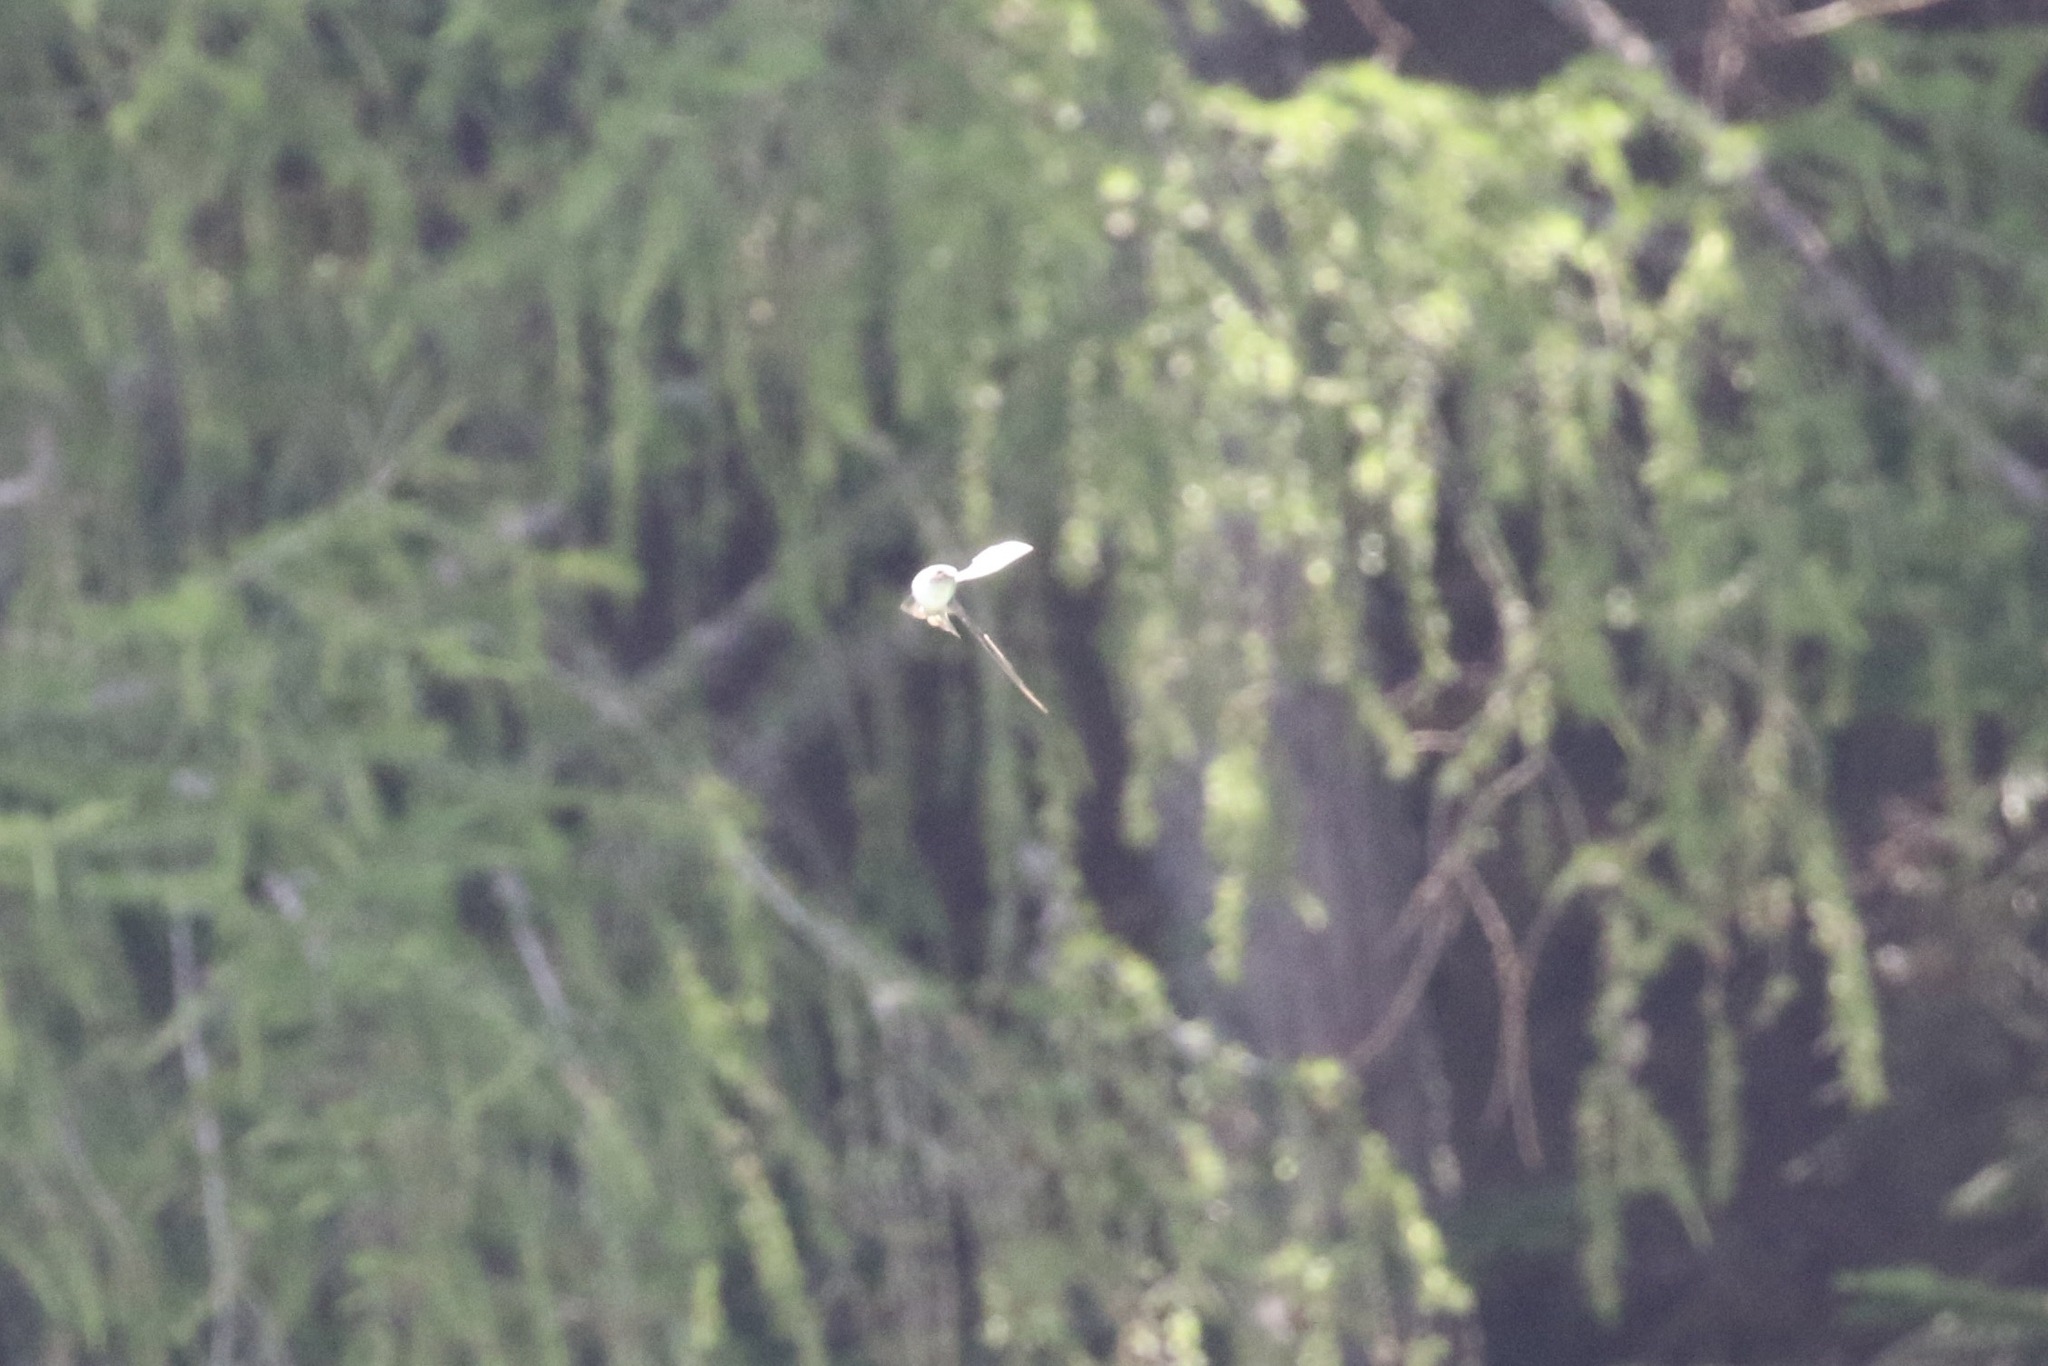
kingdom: Animalia
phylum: Chordata
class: Aves
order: Passeriformes
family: Hirundinidae
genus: Ptyonoprogne
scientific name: Ptyonoprogne rupestris
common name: Eurasian crag martin
